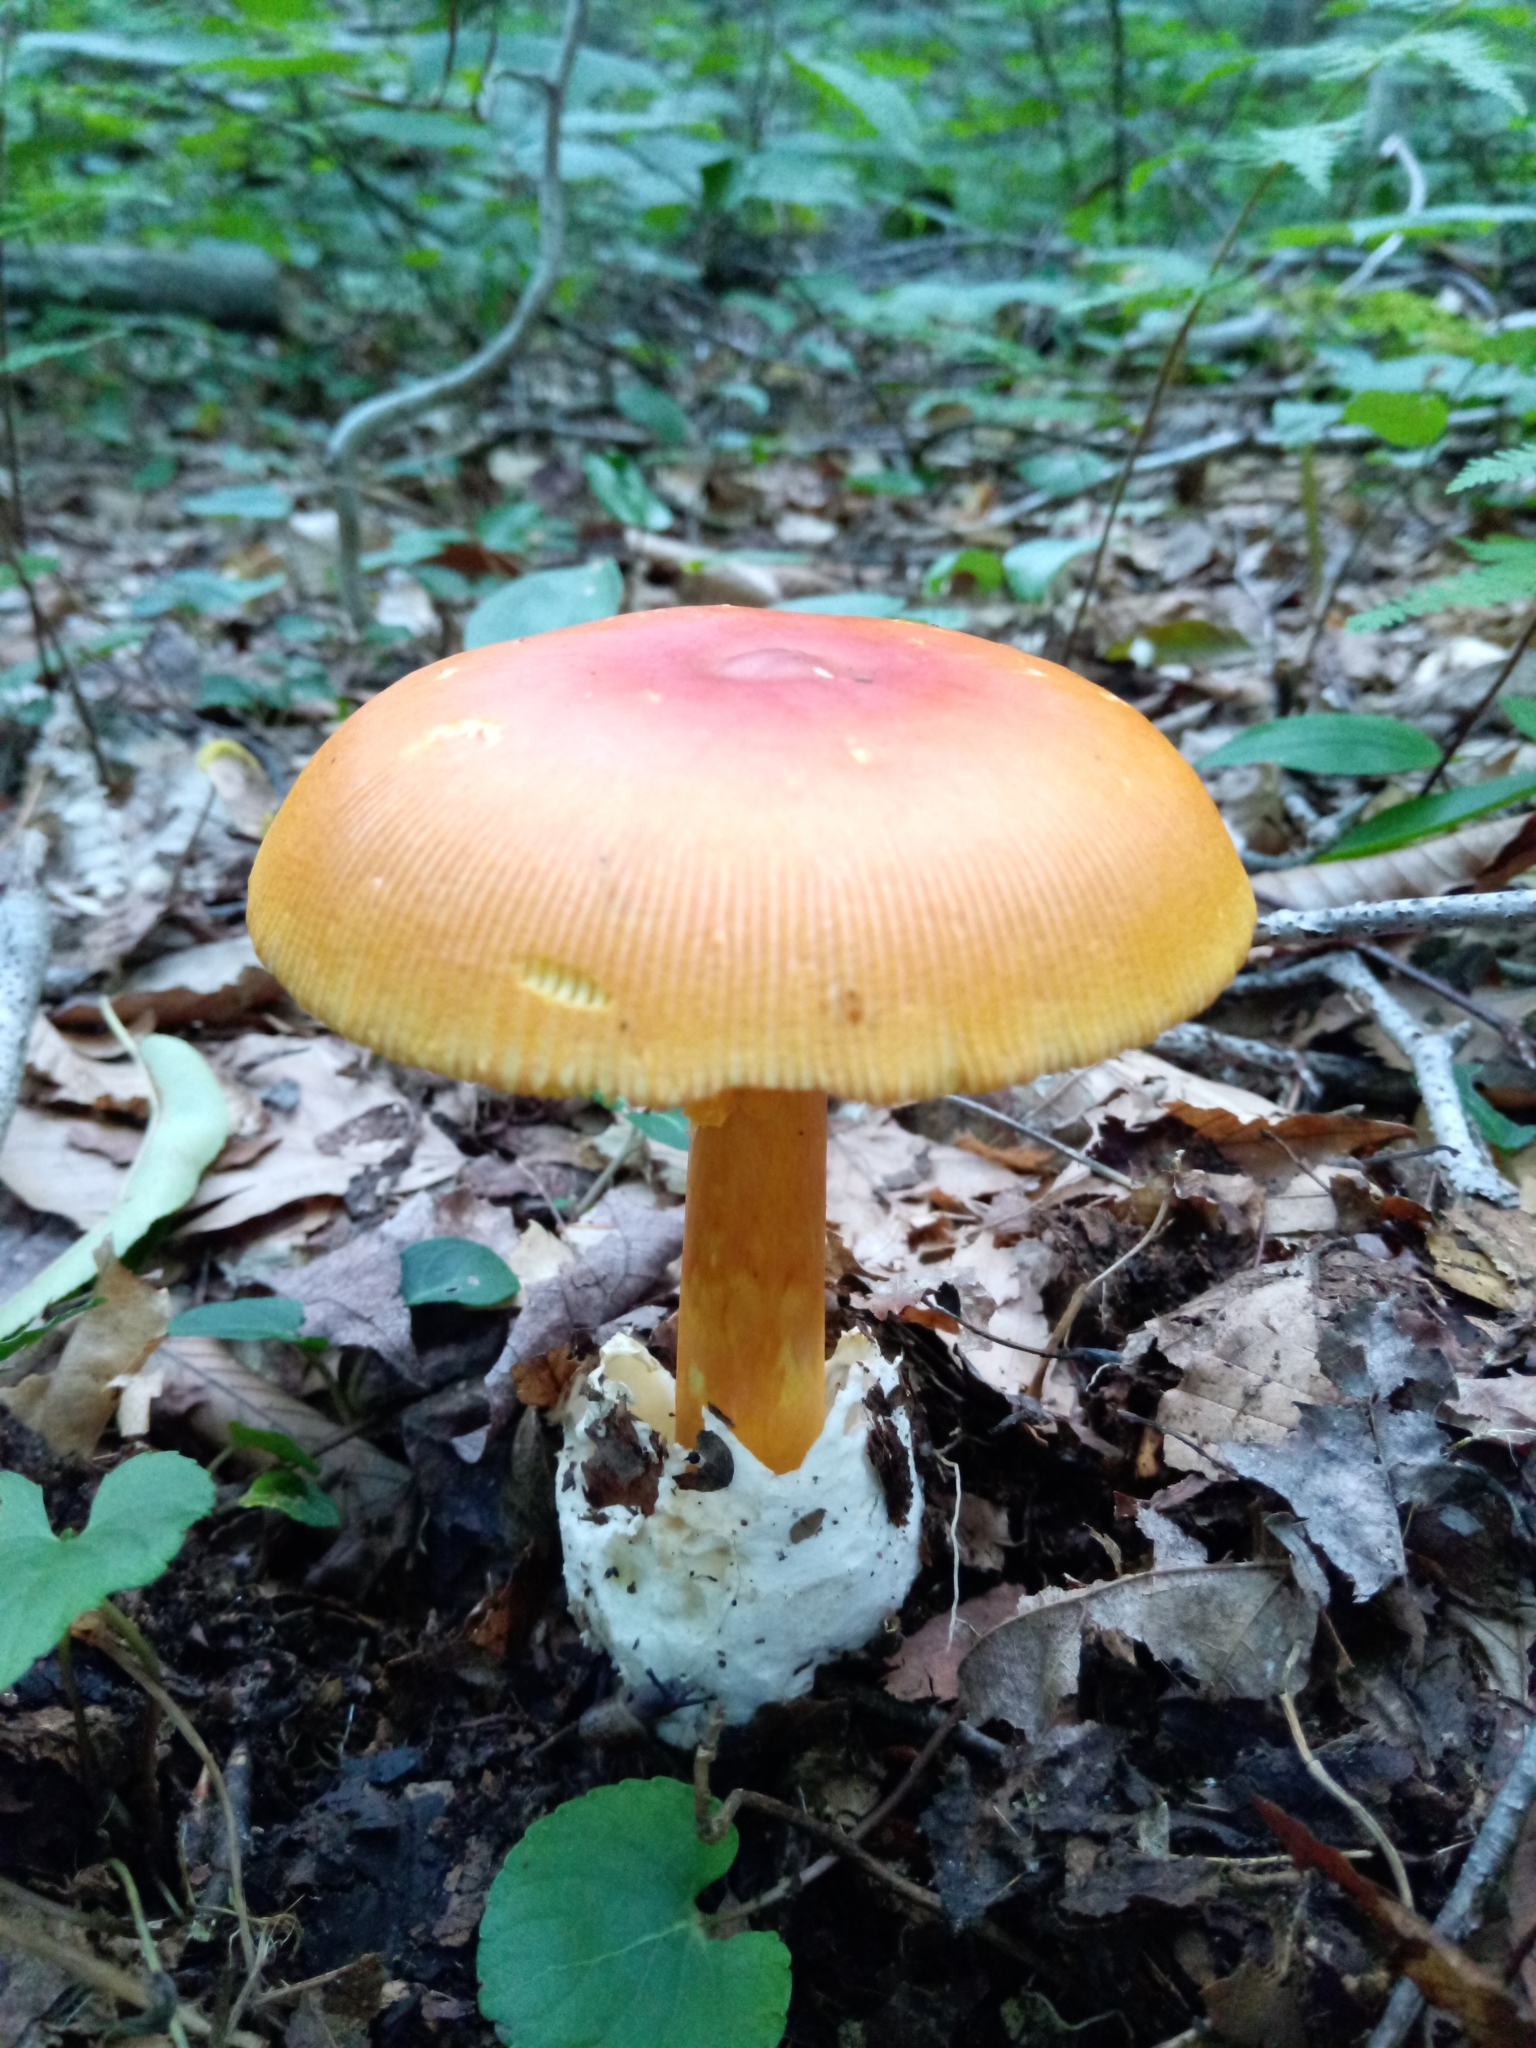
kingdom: Fungi
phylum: Basidiomycota
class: Agaricomycetes
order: Agaricales
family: Amanitaceae
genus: Amanita
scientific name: Amanita jacksonii
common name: Jackson's slender caesar
